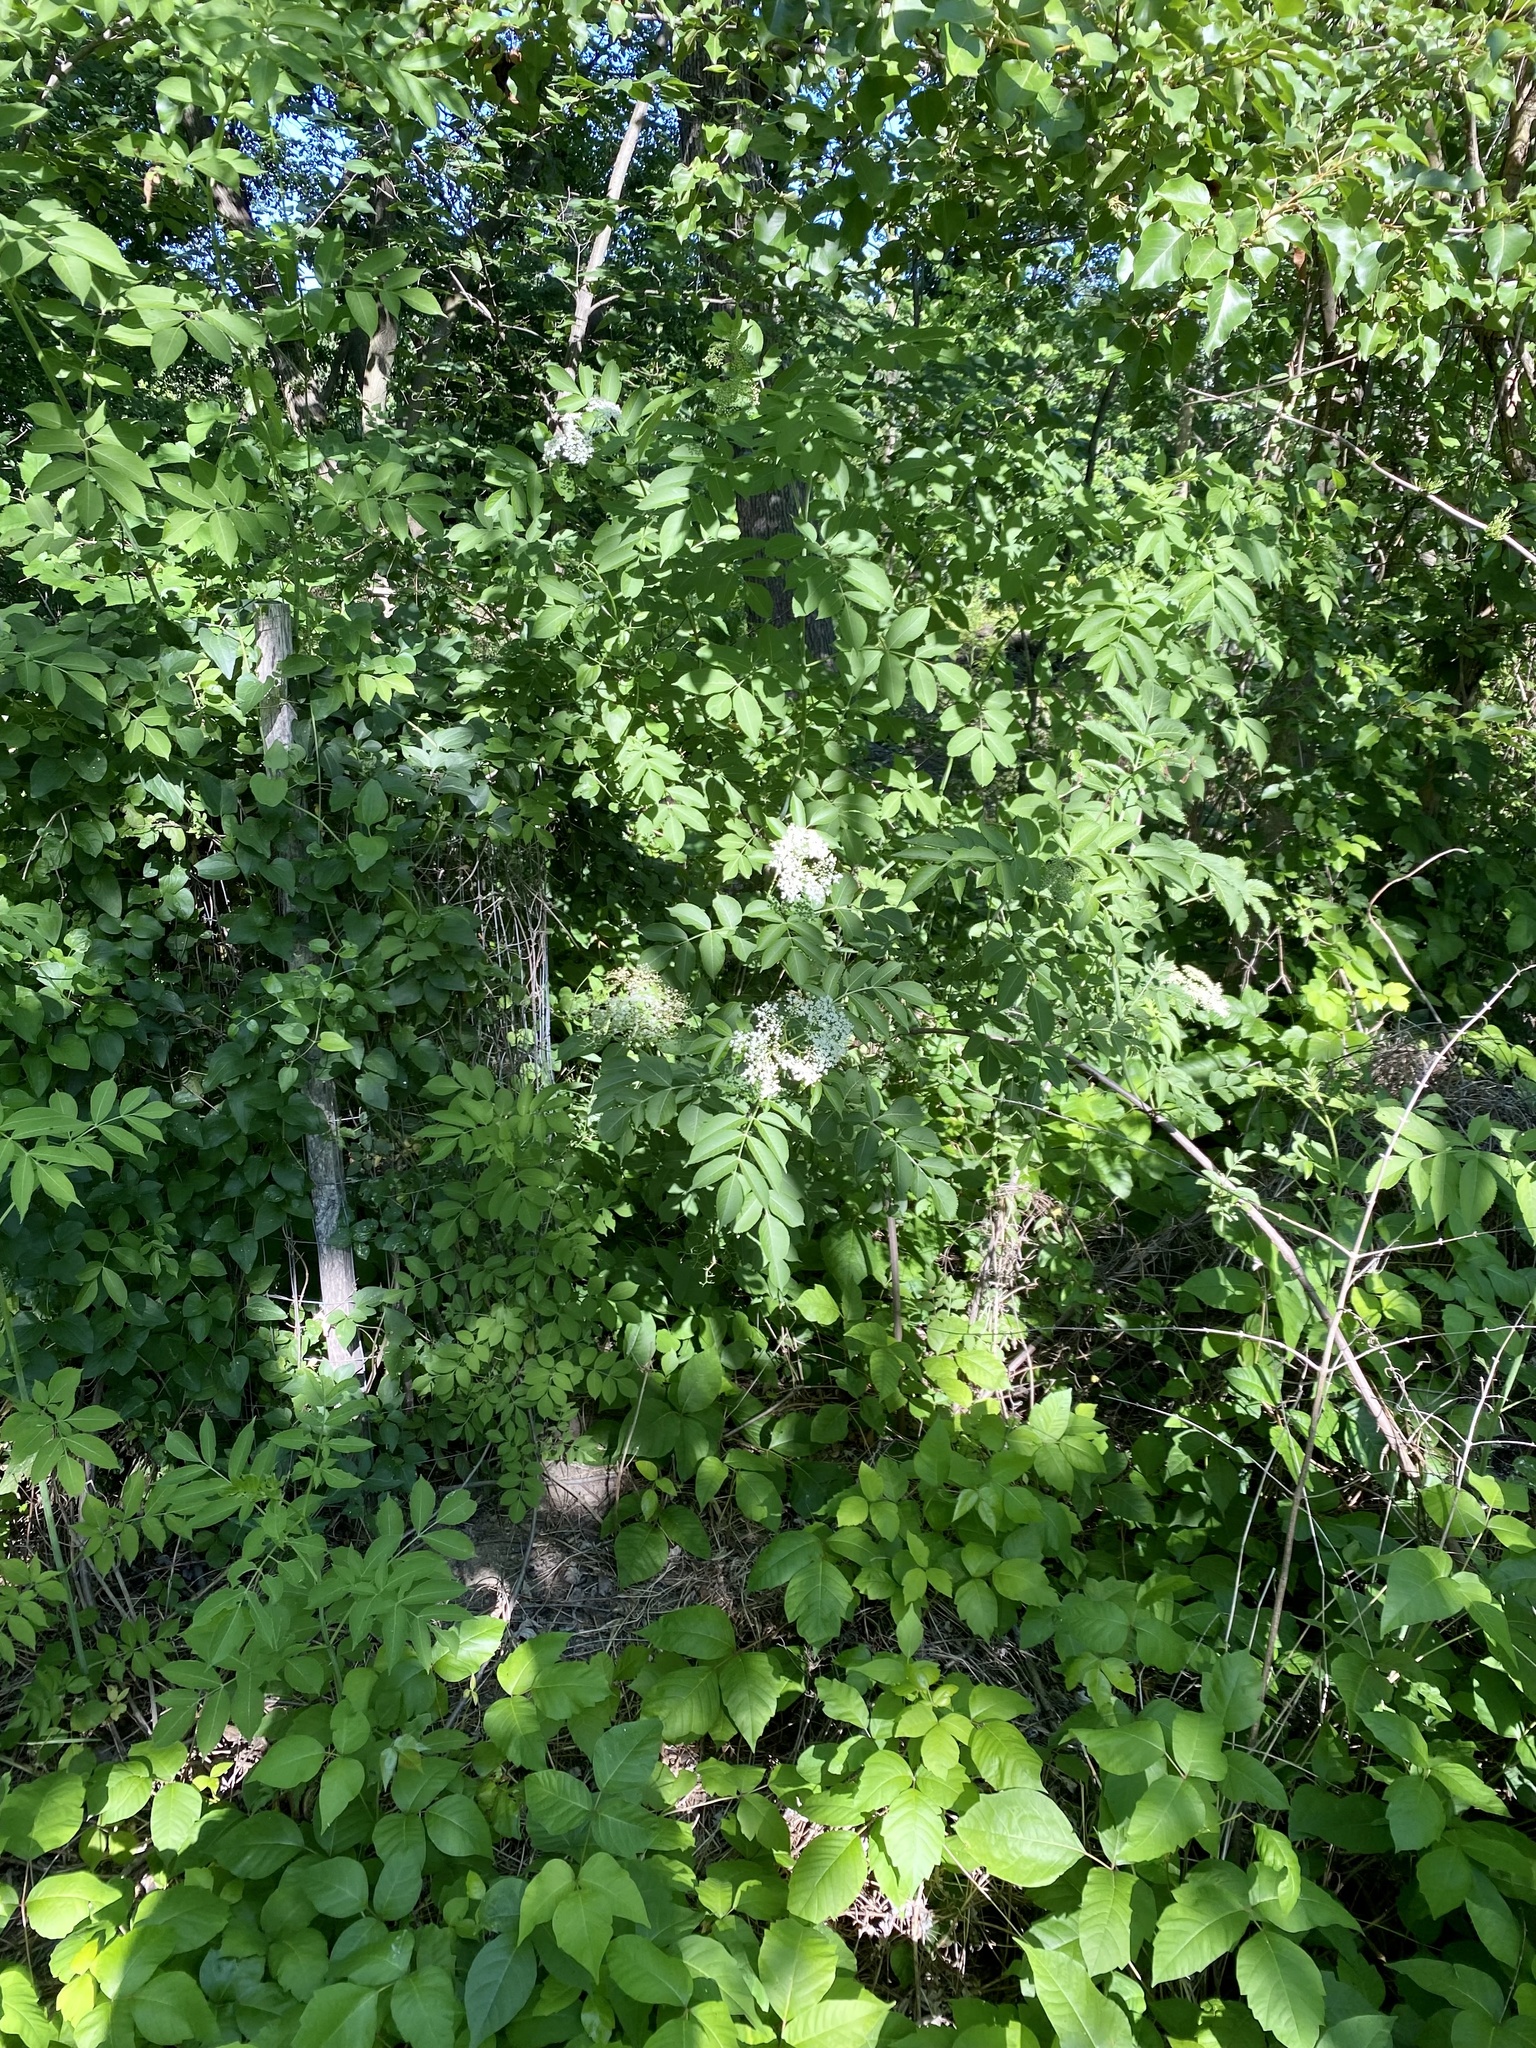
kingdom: Plantae
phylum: Tracheophyta
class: Magnoliopsida
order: Dipsacales
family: Viburnaceae
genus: Sambucus
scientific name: Sambucus canadensis
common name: American elder
